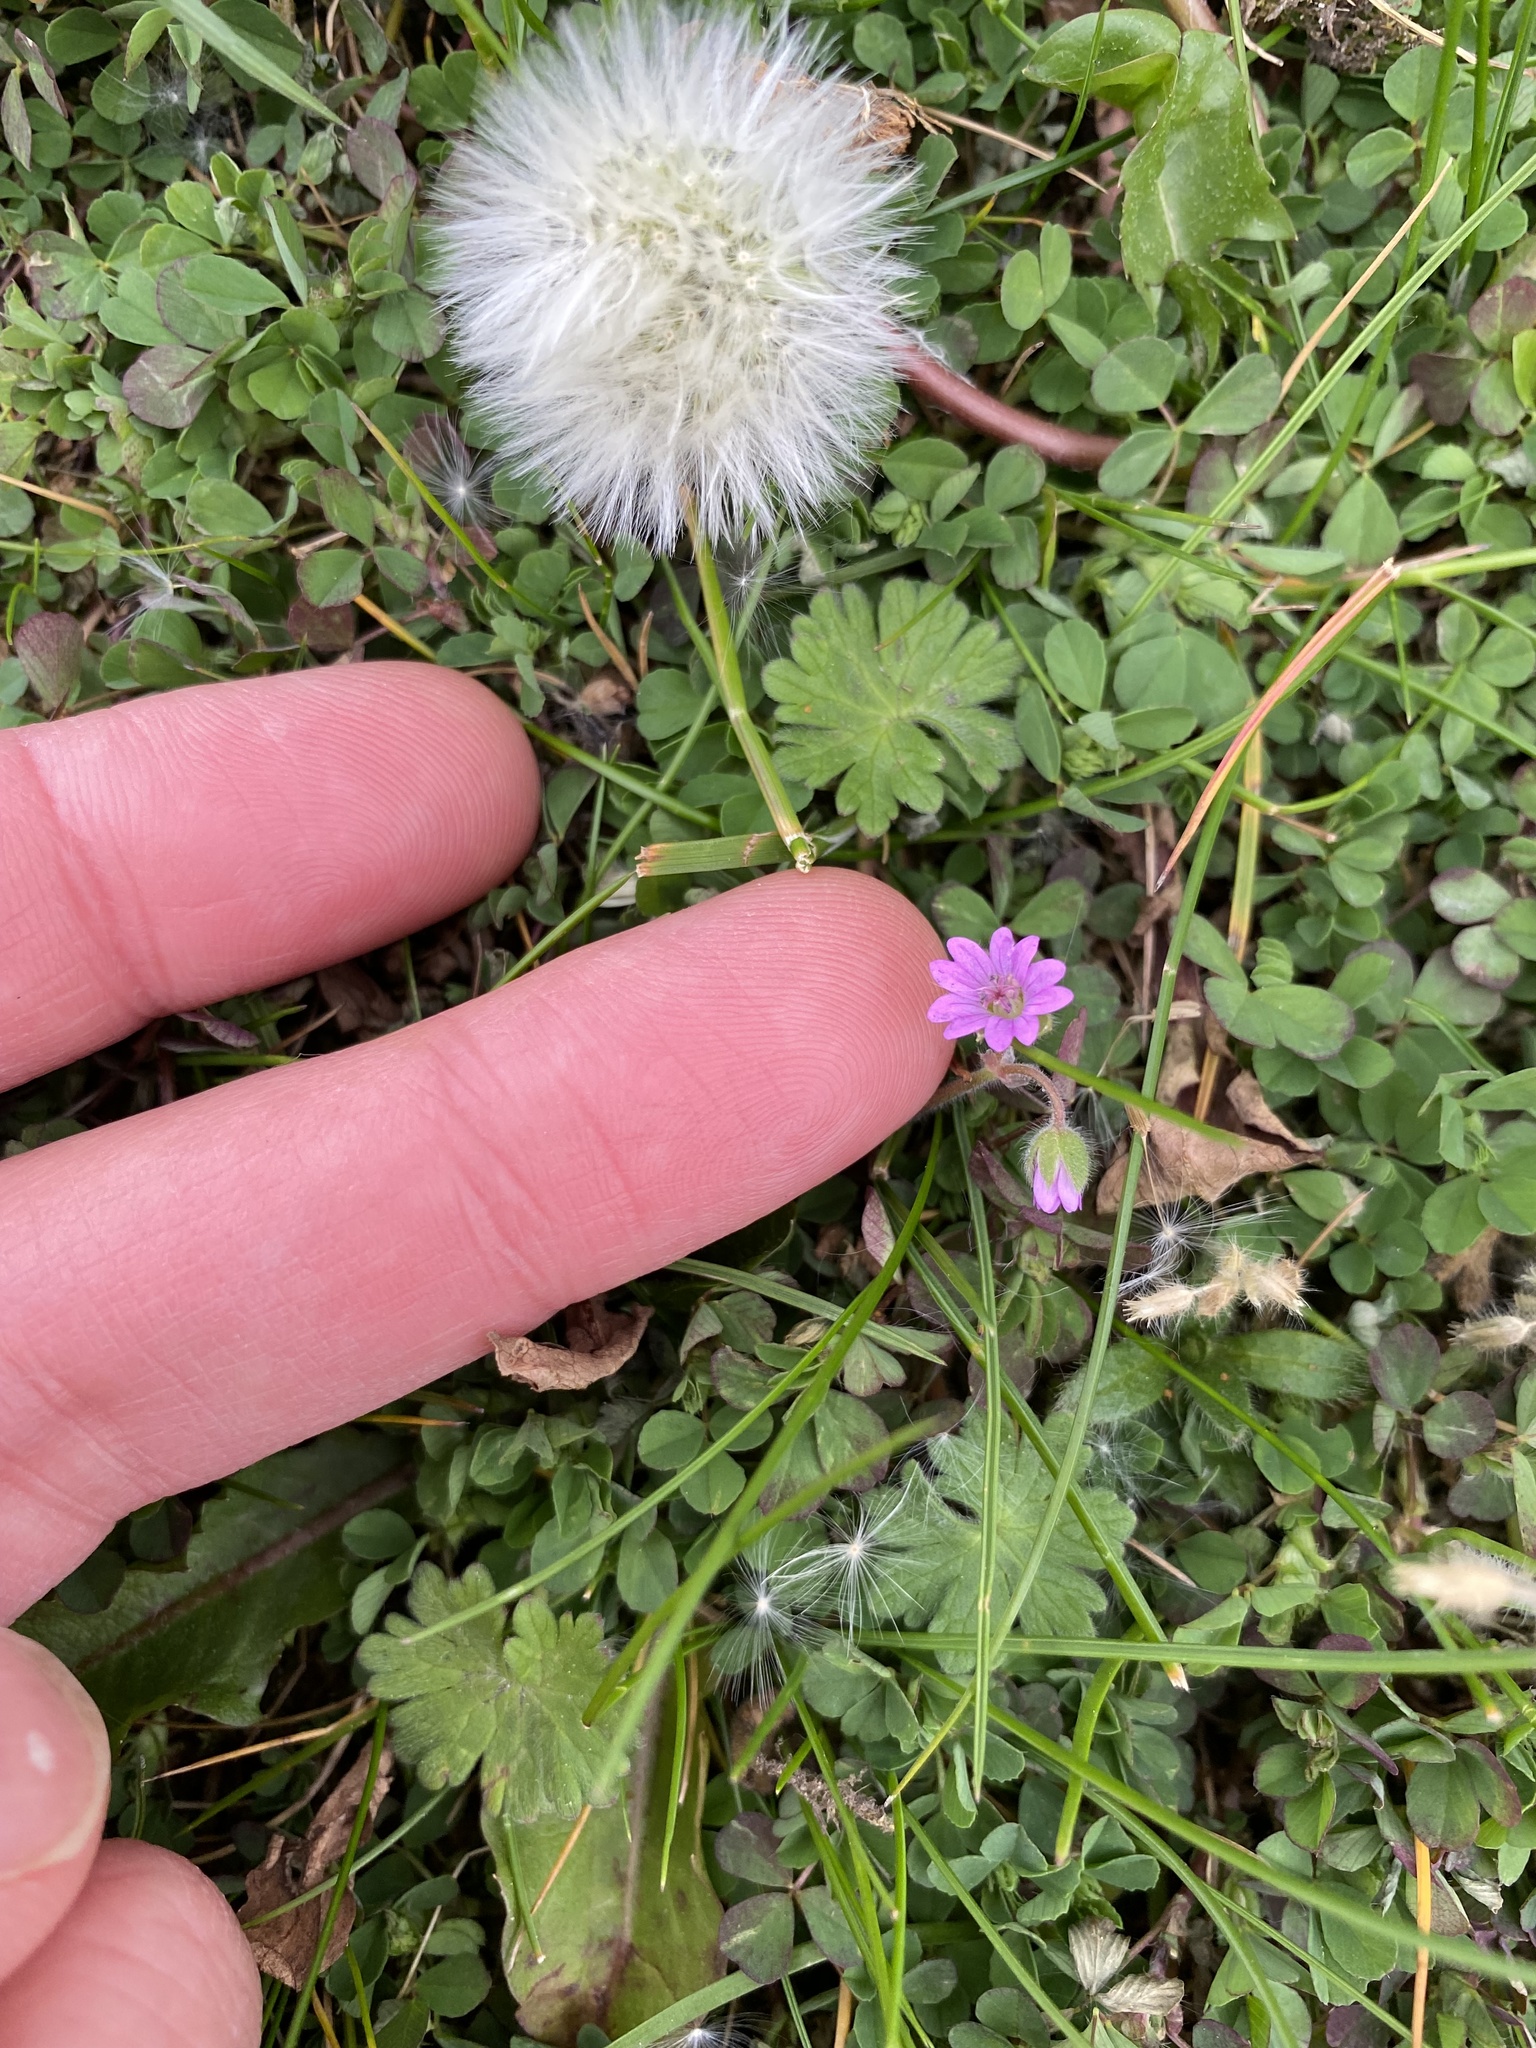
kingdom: Plantae
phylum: Tracheophyta
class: Magnoliopsida
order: Geraniales
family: Geraniaceae
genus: Geranium
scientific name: Geranium molle
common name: Dove's-foot crane's-bill
